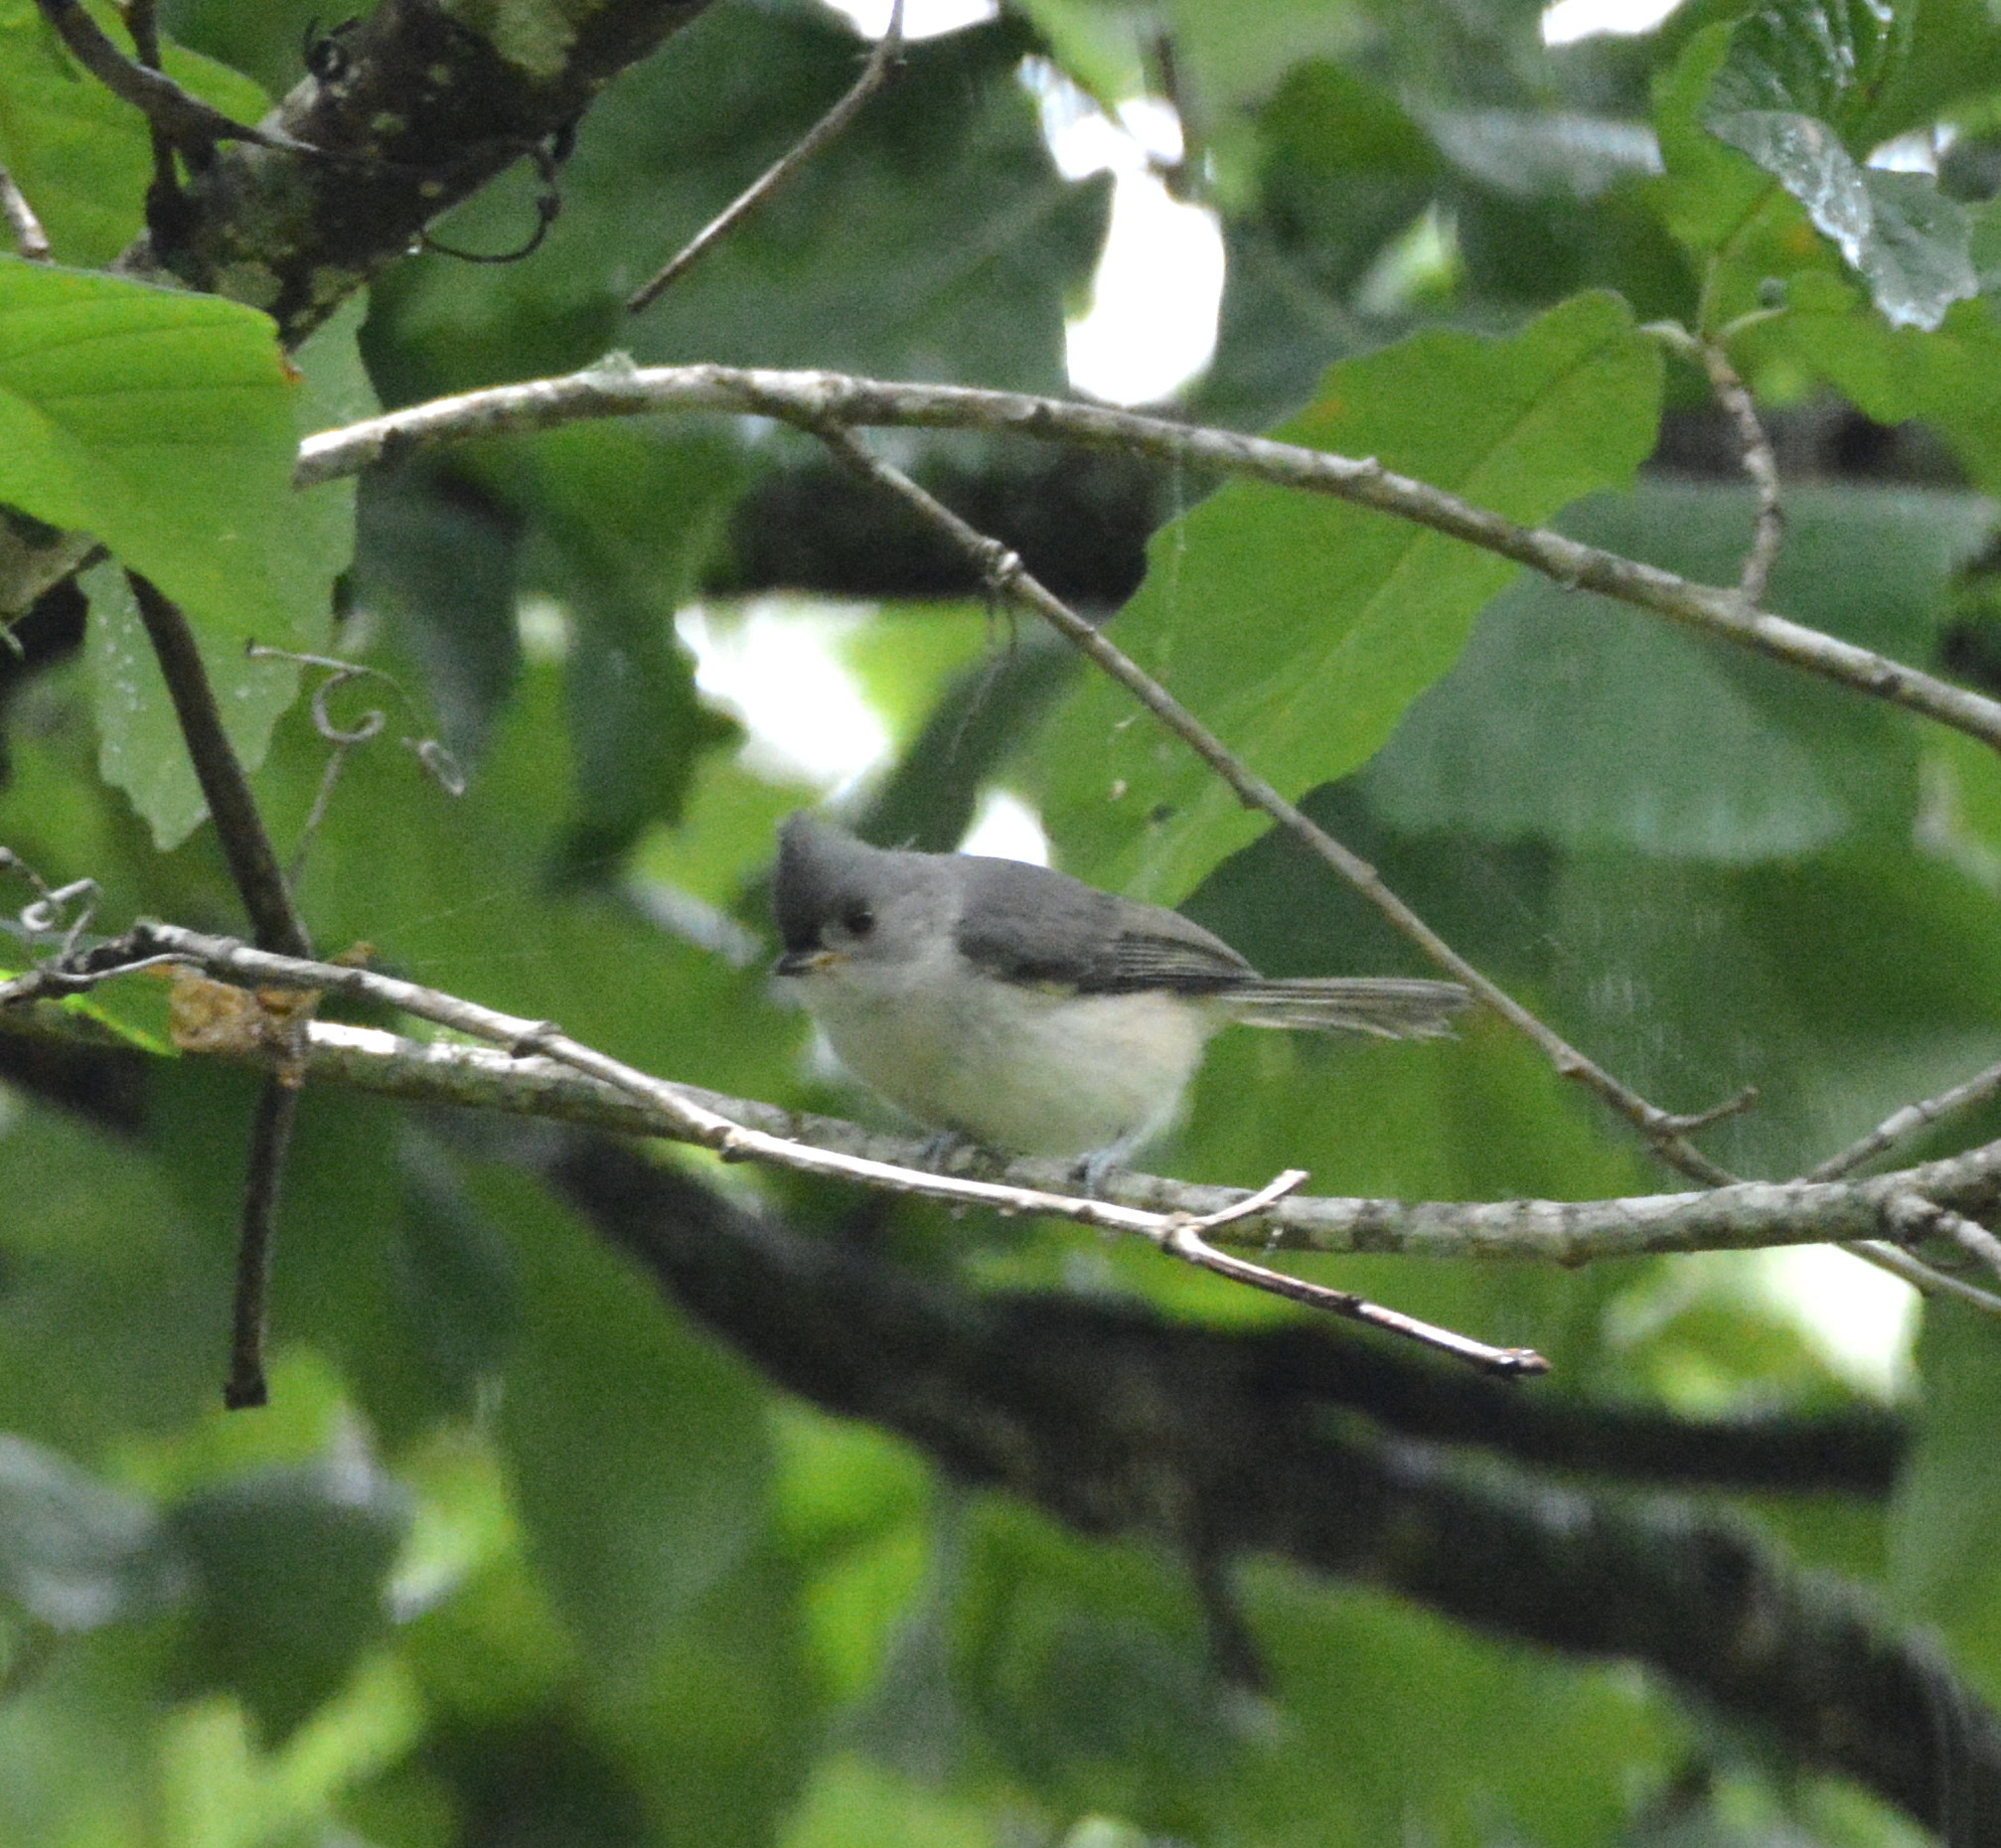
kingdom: Animalia
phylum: Chordata
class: Aves
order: Passeriformes
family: Paridae
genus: Baeolophus
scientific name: Baeolophus bicolor
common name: Tufted titmouse
